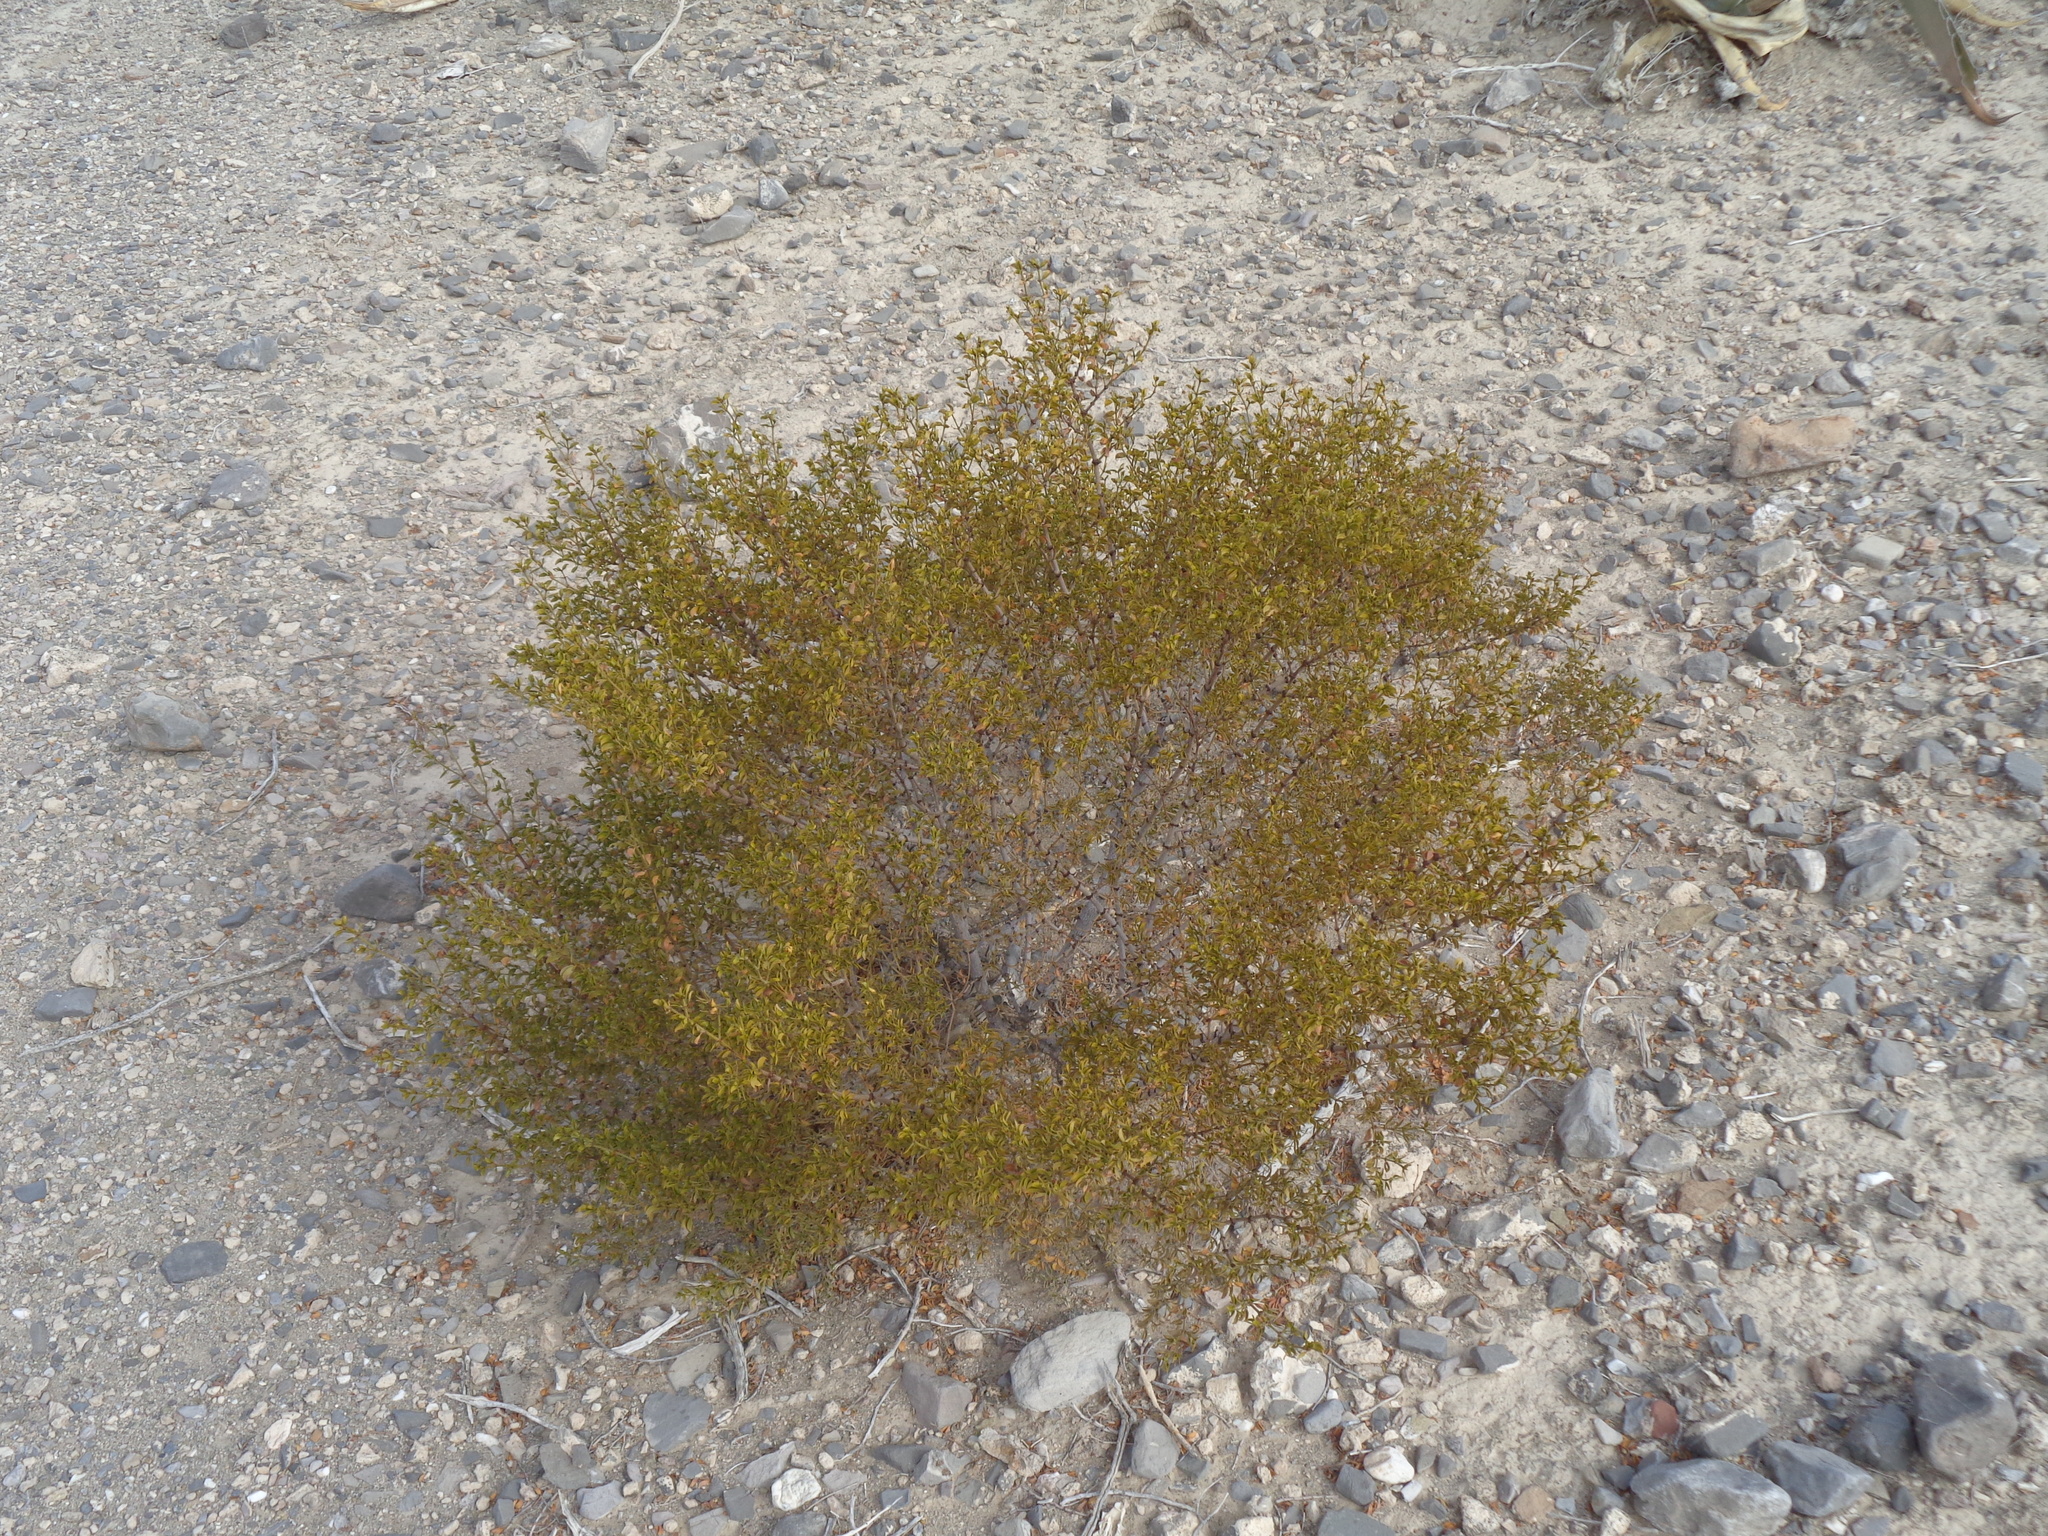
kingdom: Plantae
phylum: Tracheophyta
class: Magnoliopsida
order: Zygophyllales
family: Zygophyllaceae
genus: Larrea
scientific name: Larrea tridentata
